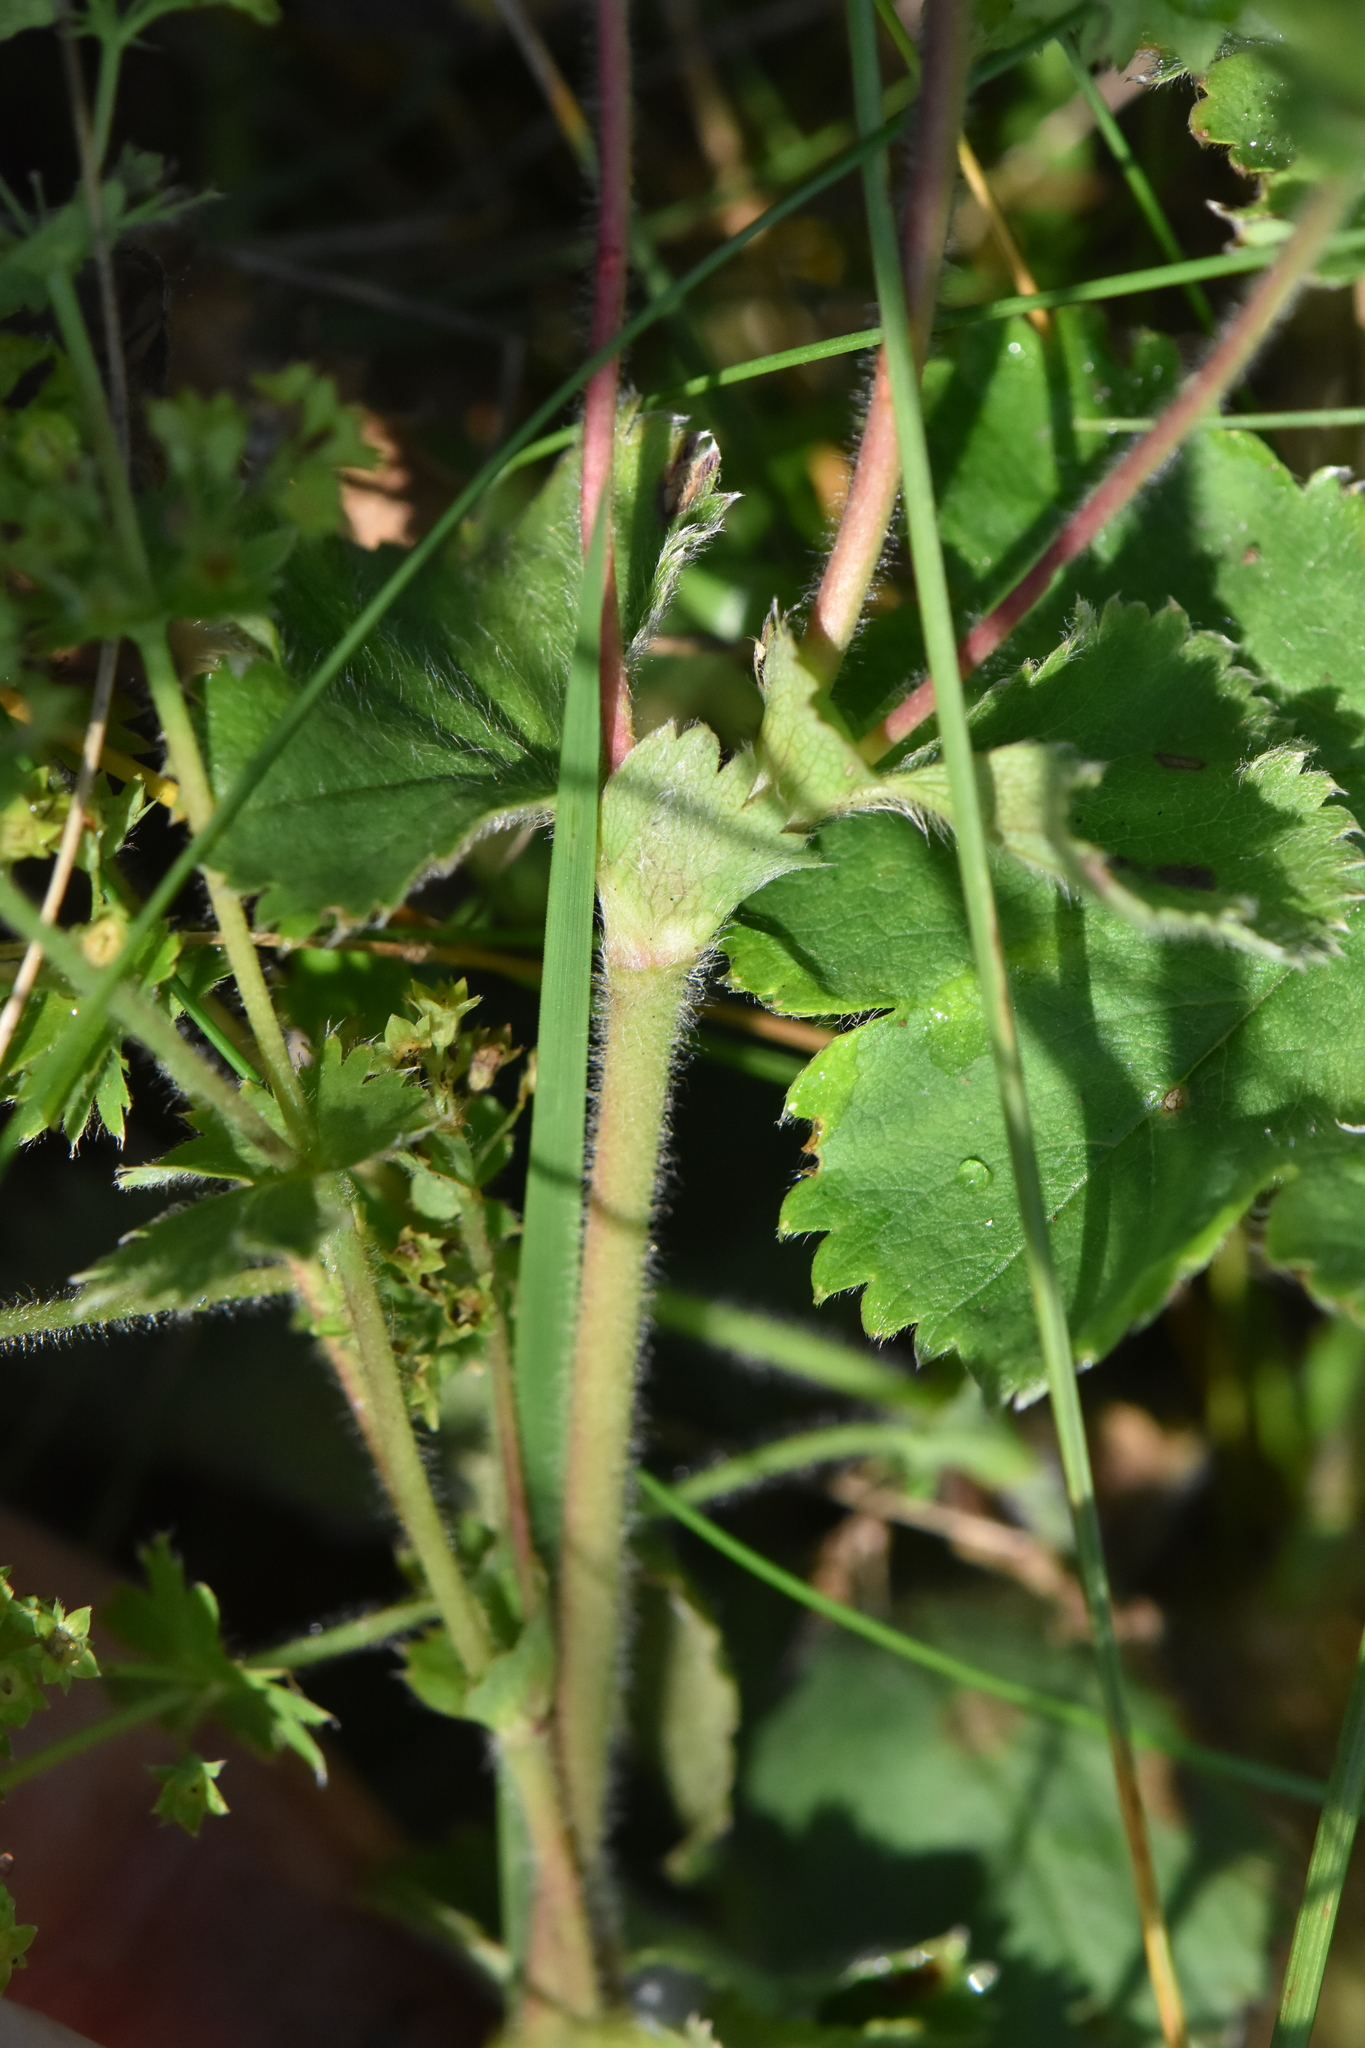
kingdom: Plantae
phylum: Tracheophyta
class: Magnoliopsida
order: Rosales
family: Rosaceae
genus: Alchemilla
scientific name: Alchemilla
